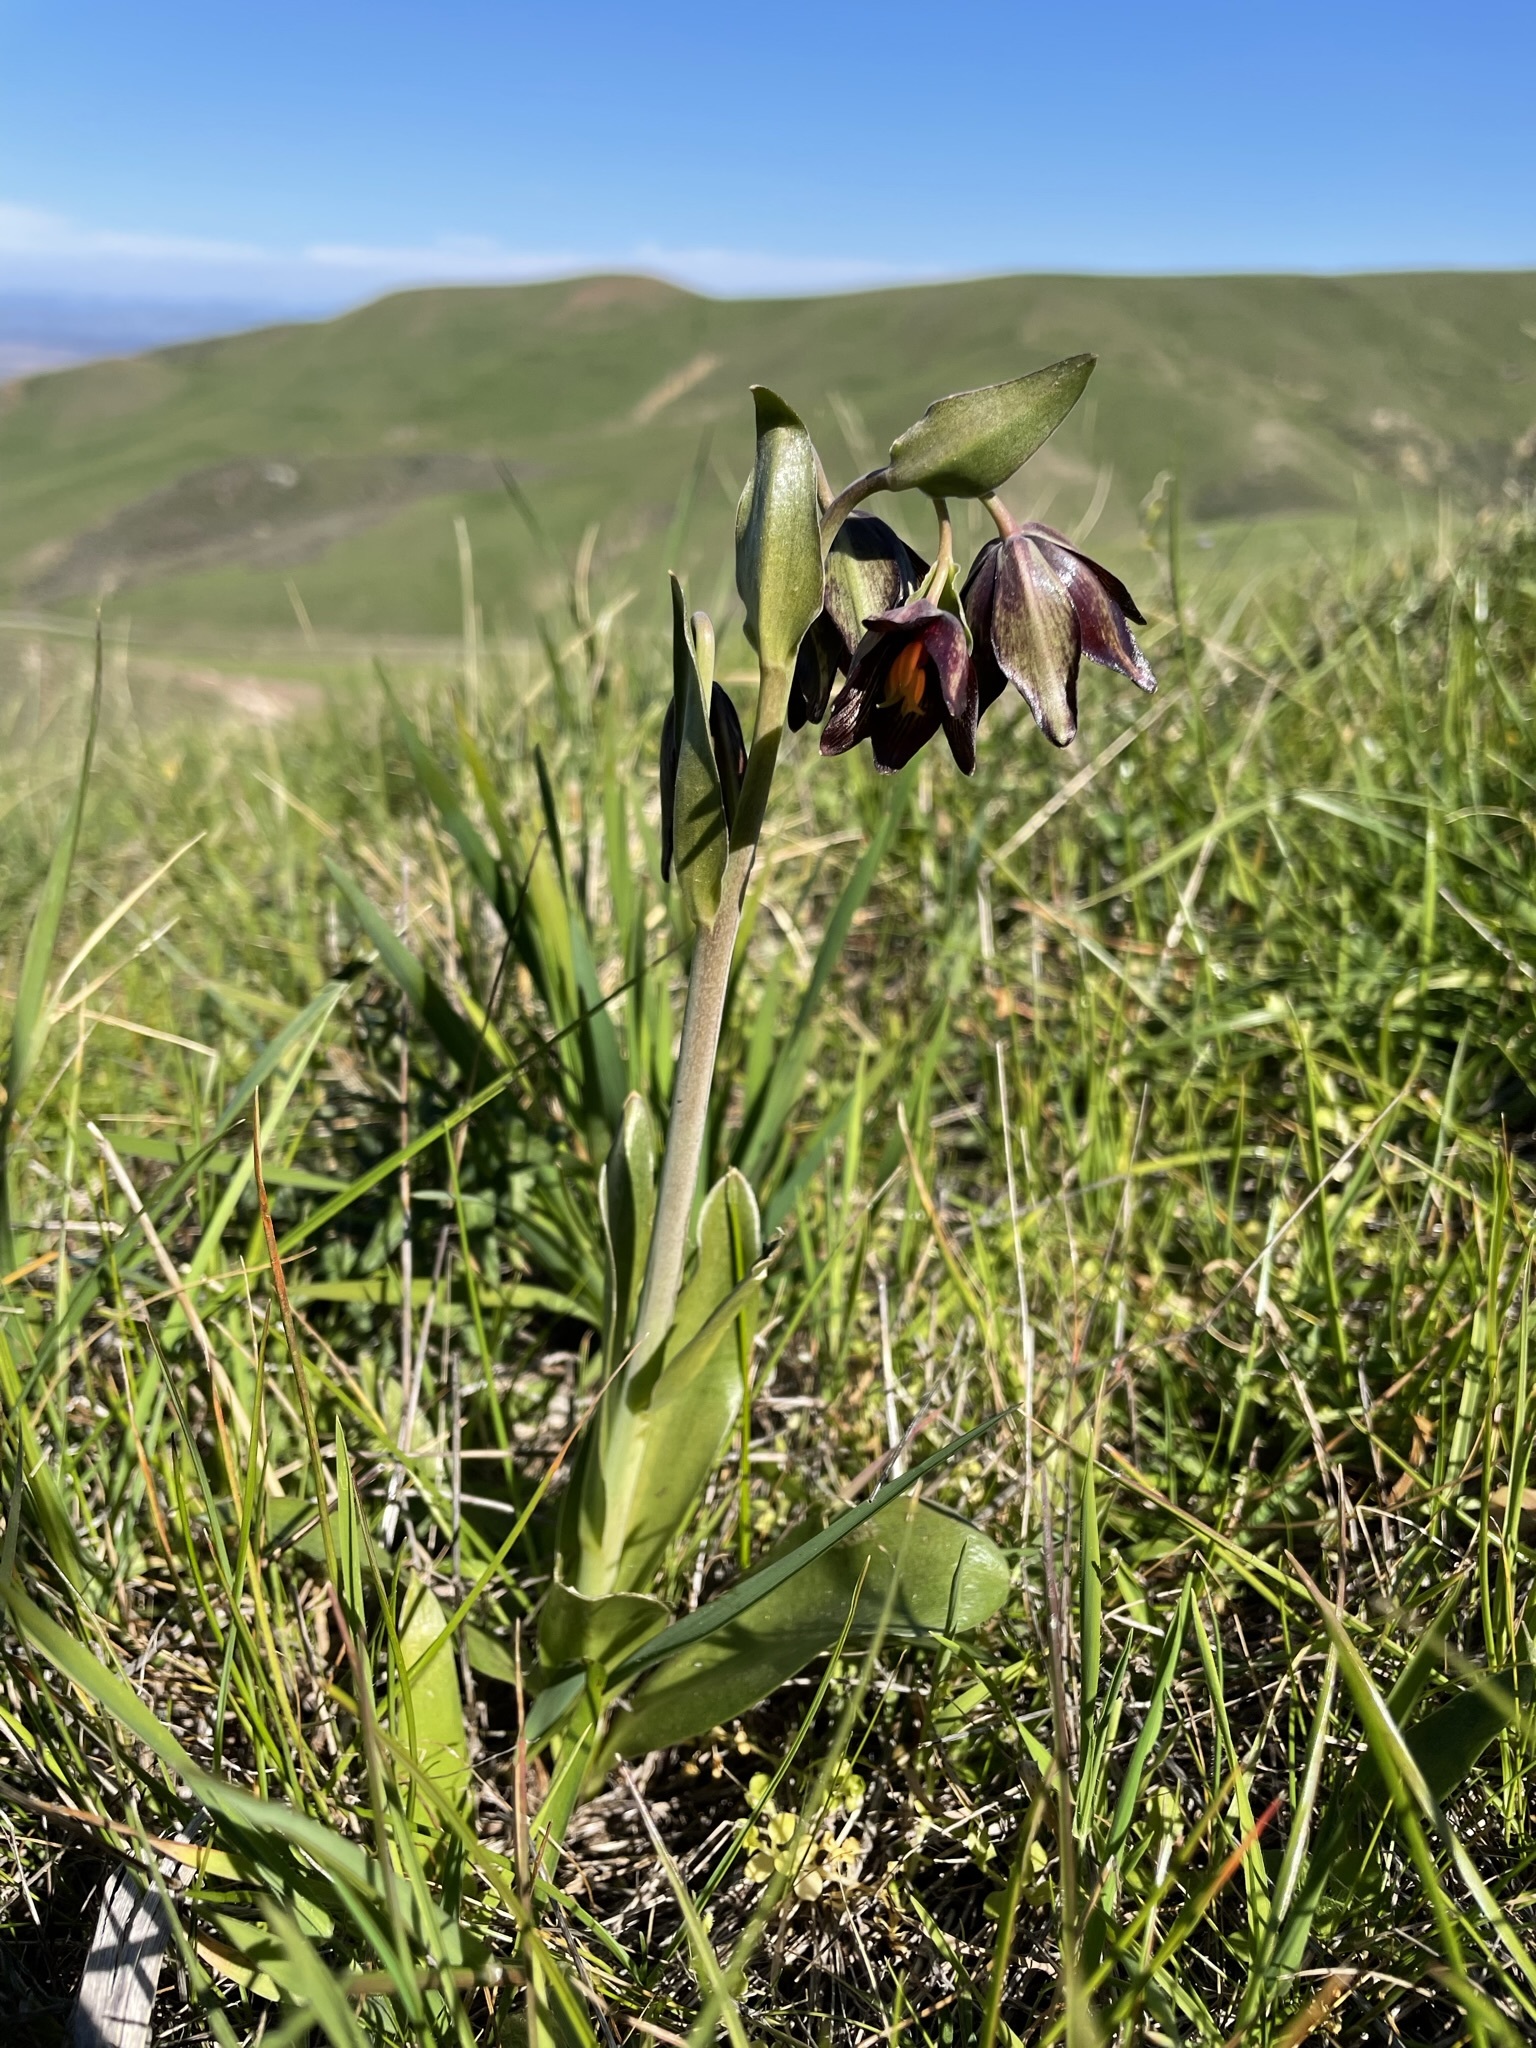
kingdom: Plantae
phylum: Tracheophyta
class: Liliopsida
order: Liliales
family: Liliaceae
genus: Fritillaria
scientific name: Fritillaria biflora
